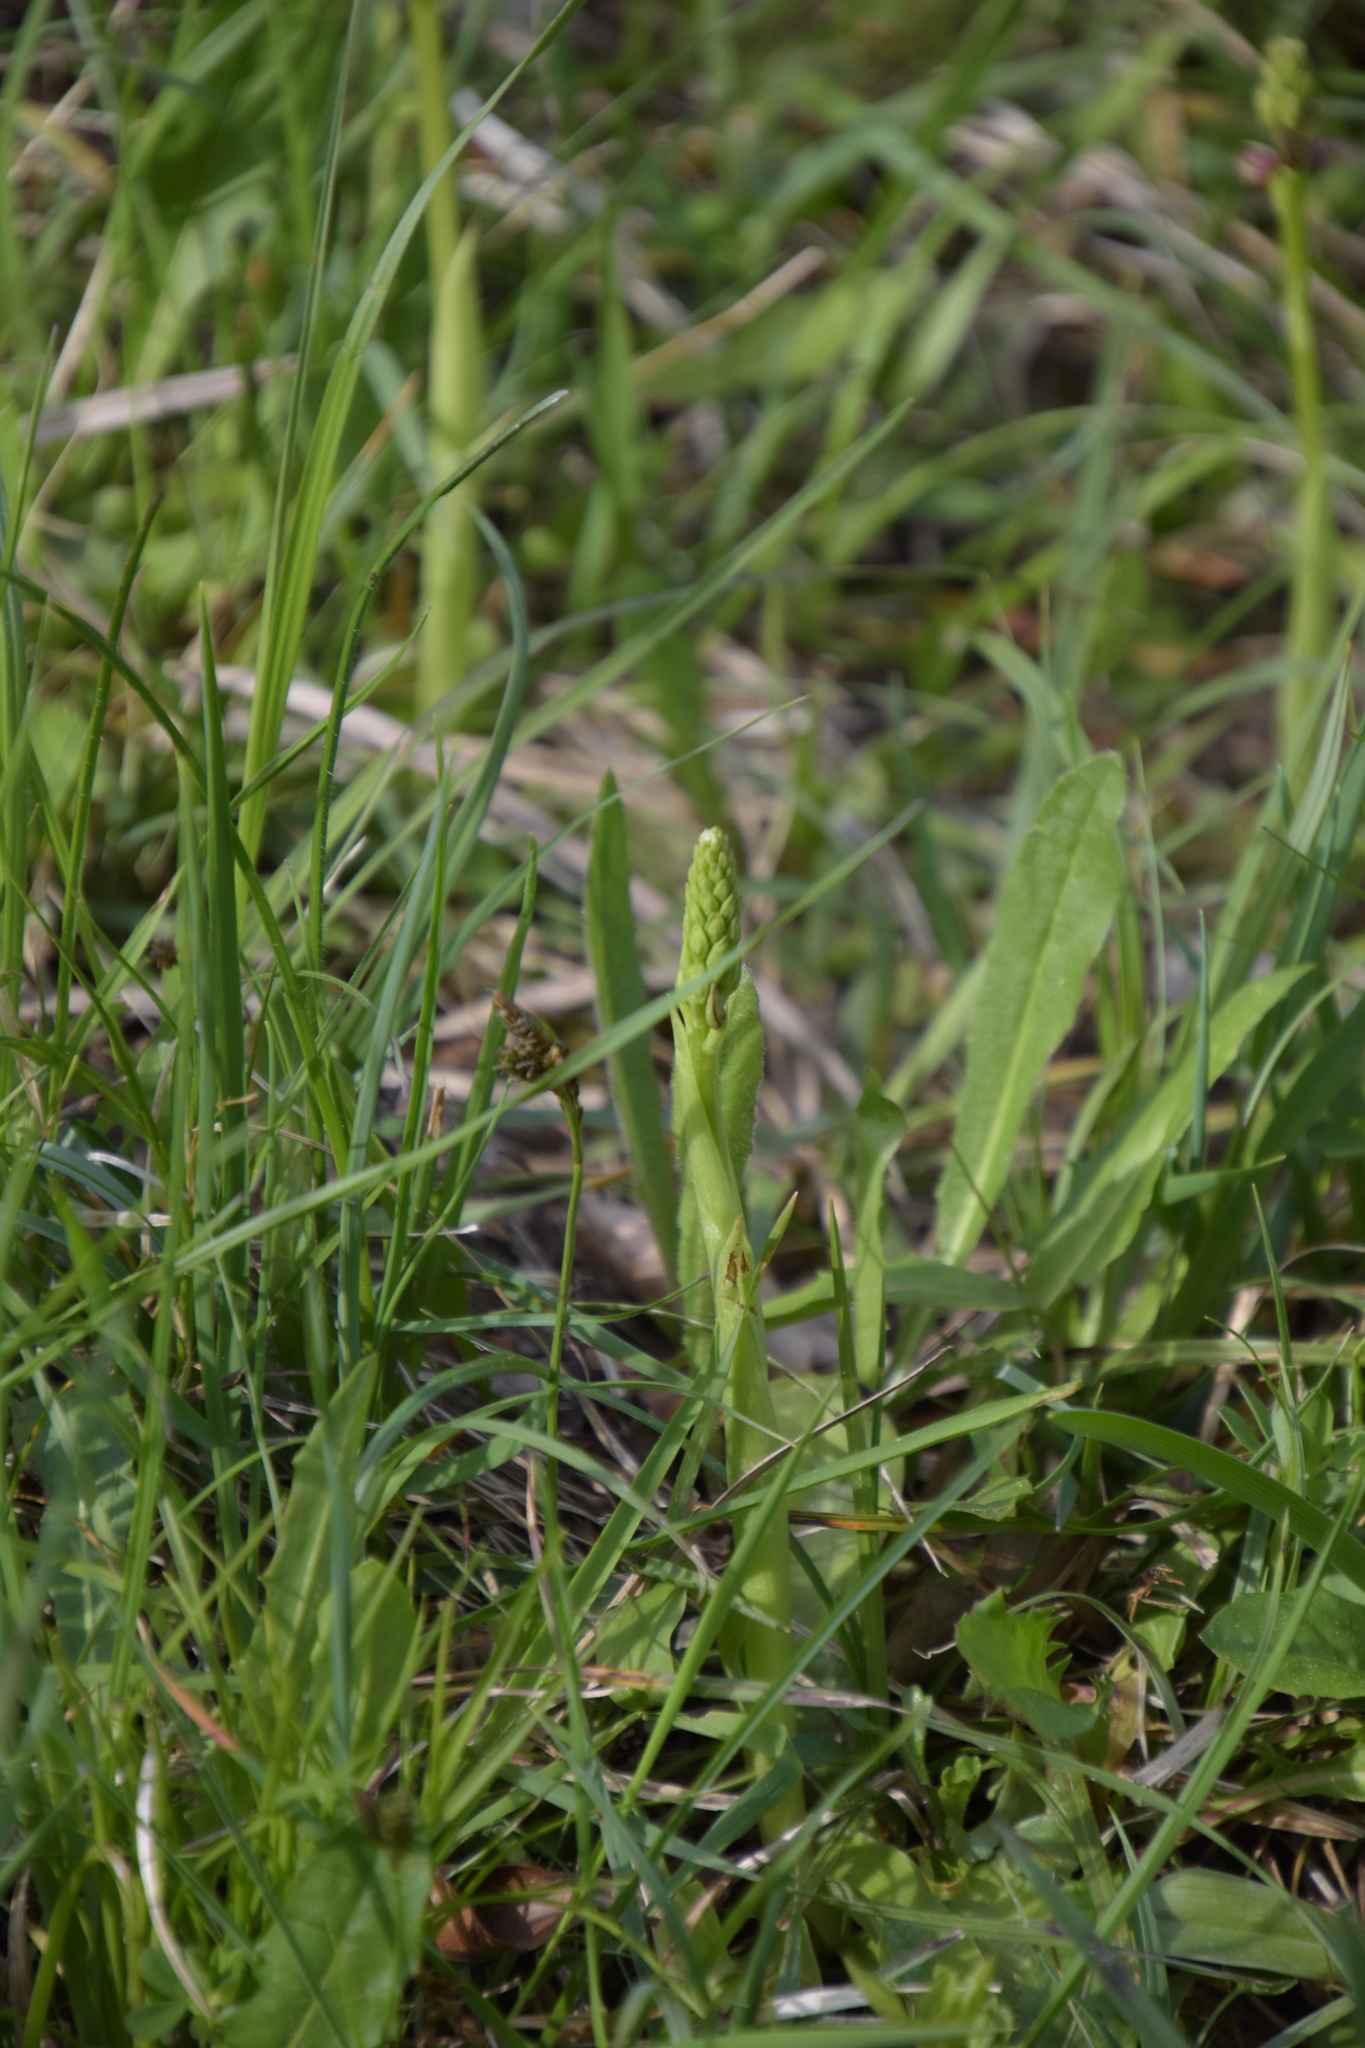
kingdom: Plantae
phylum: Tracheophyta
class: Liliopsida
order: Asparagales
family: Orchidaceae
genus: Orchis
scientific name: Orchis anthropophora
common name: Man orchid
